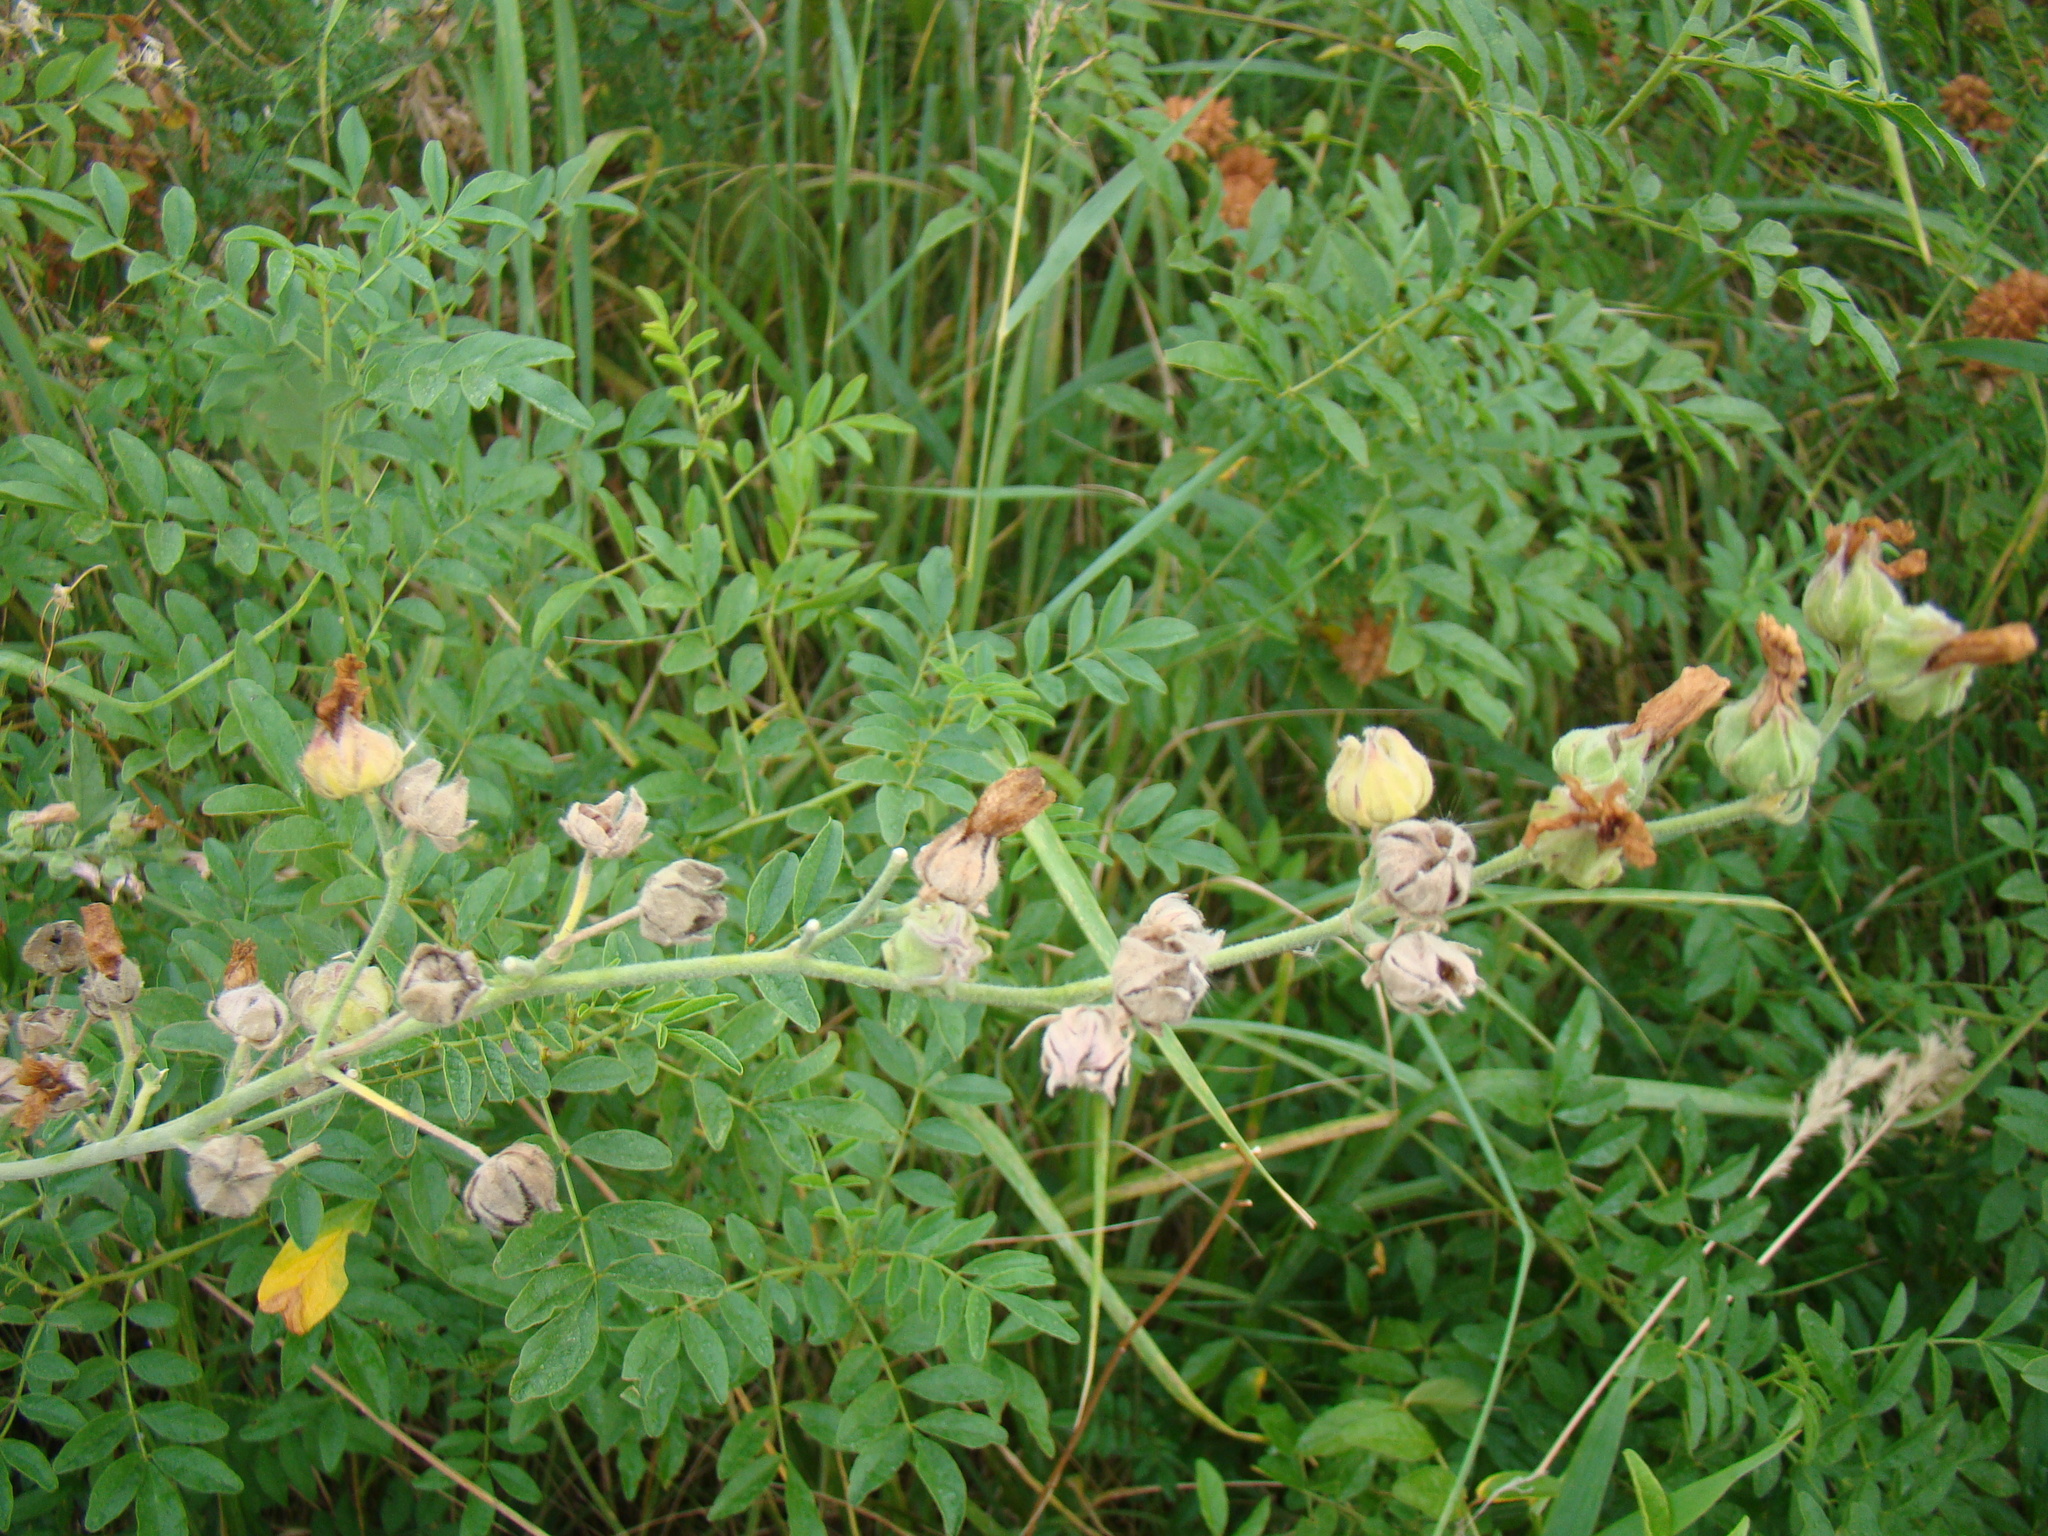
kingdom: Plantae
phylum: Tracheophyta
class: Magnoliopsida
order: Malvales
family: Malvaceae
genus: Althaea
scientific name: Althaea armeniaca
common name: Armenian marshmallow
